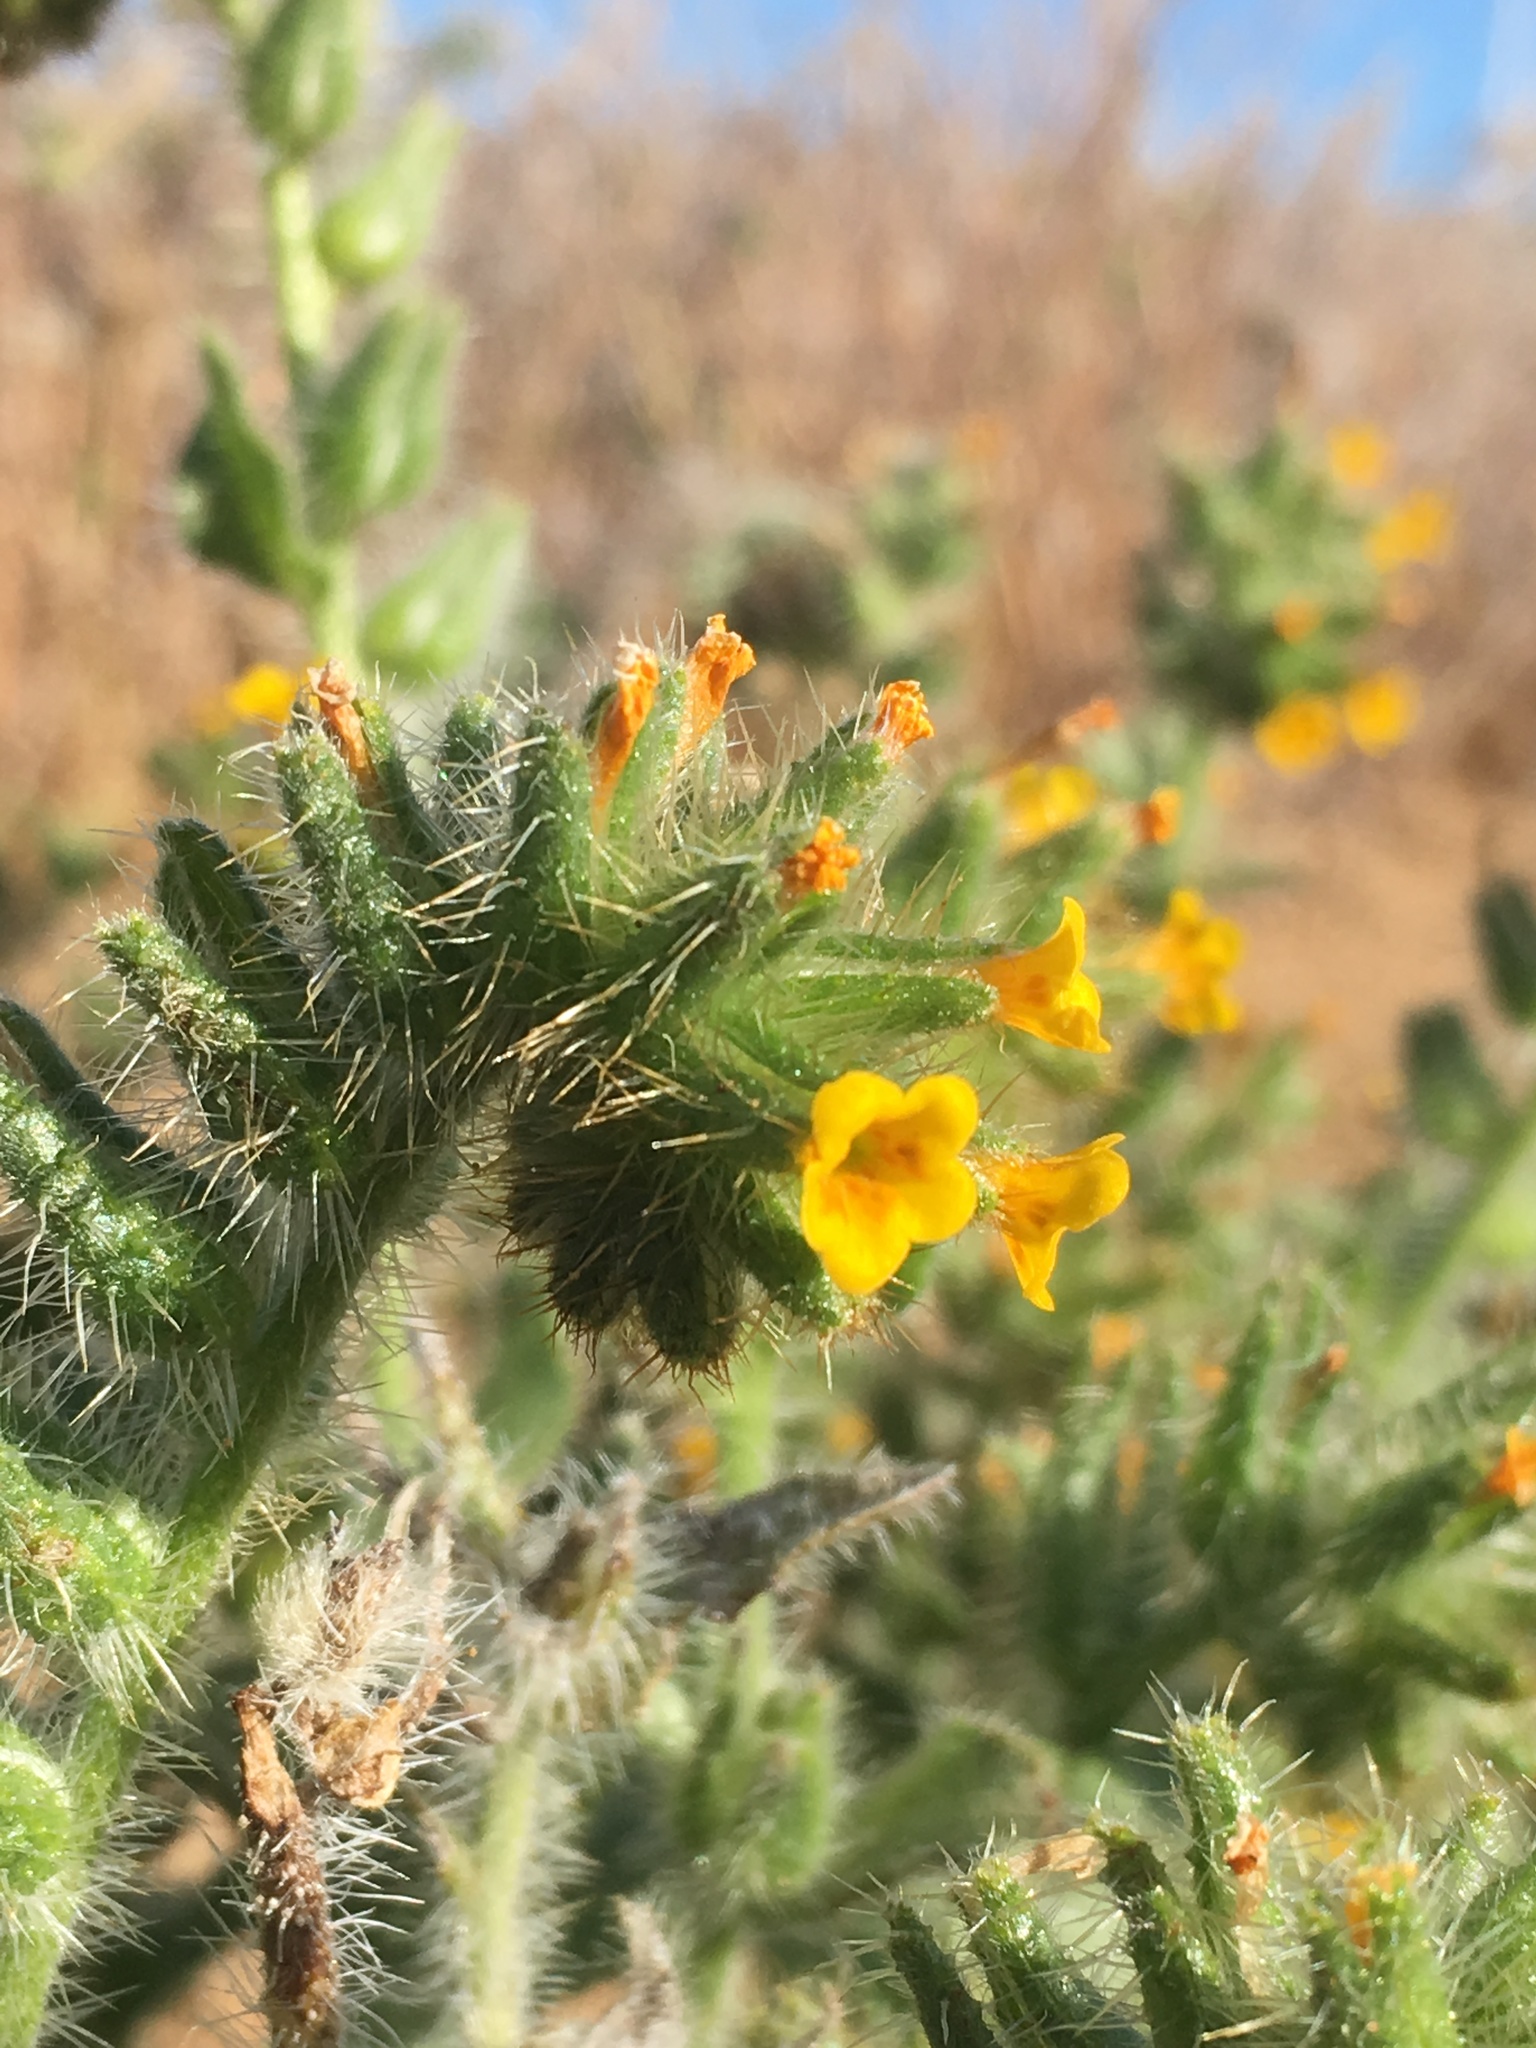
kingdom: Plantae
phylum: Tracheophyta
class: Magnoliopsida
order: Boraginales
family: Boraginaceae
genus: Amsinckia
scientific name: Amsinckia tessellata
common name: Tessellate fiddleneck
